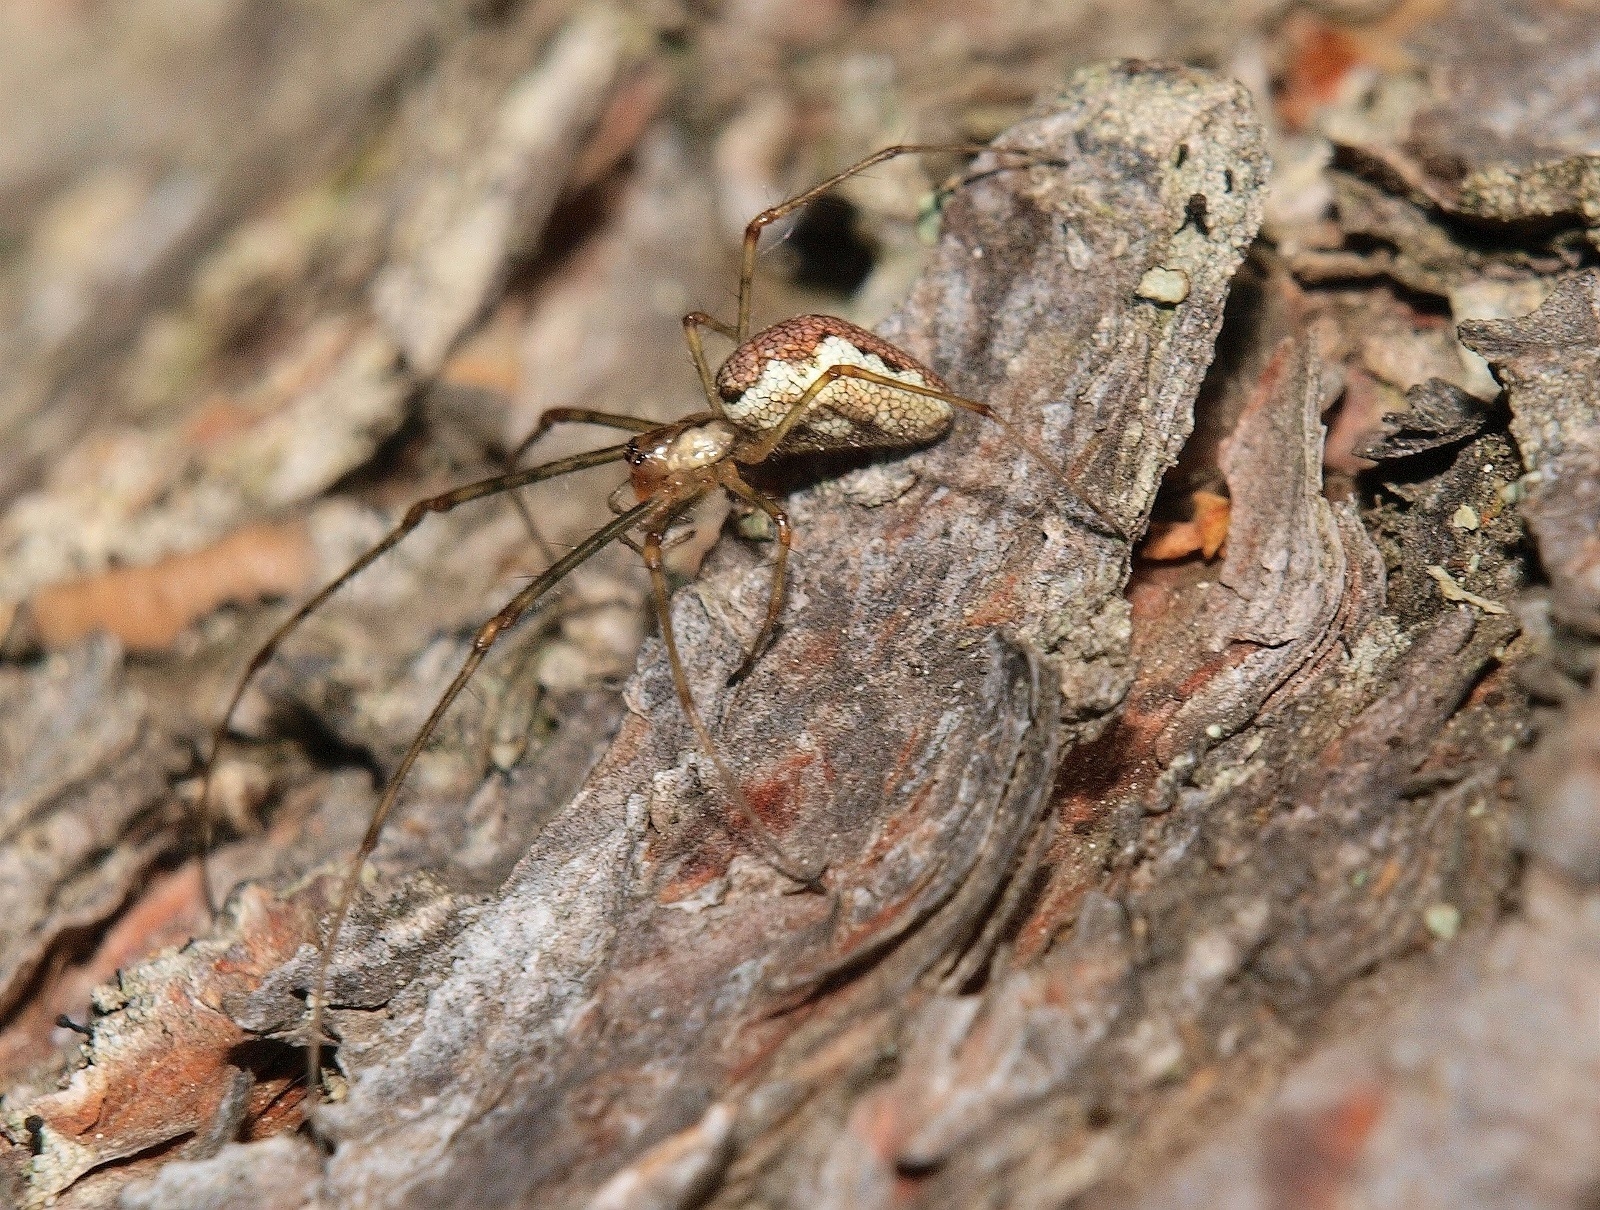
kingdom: Animalia
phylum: Arthropoda
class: Arachnida
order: Araneae
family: Tetragnathidae
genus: Tetragnatha
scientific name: Tetragnatha obtusa
